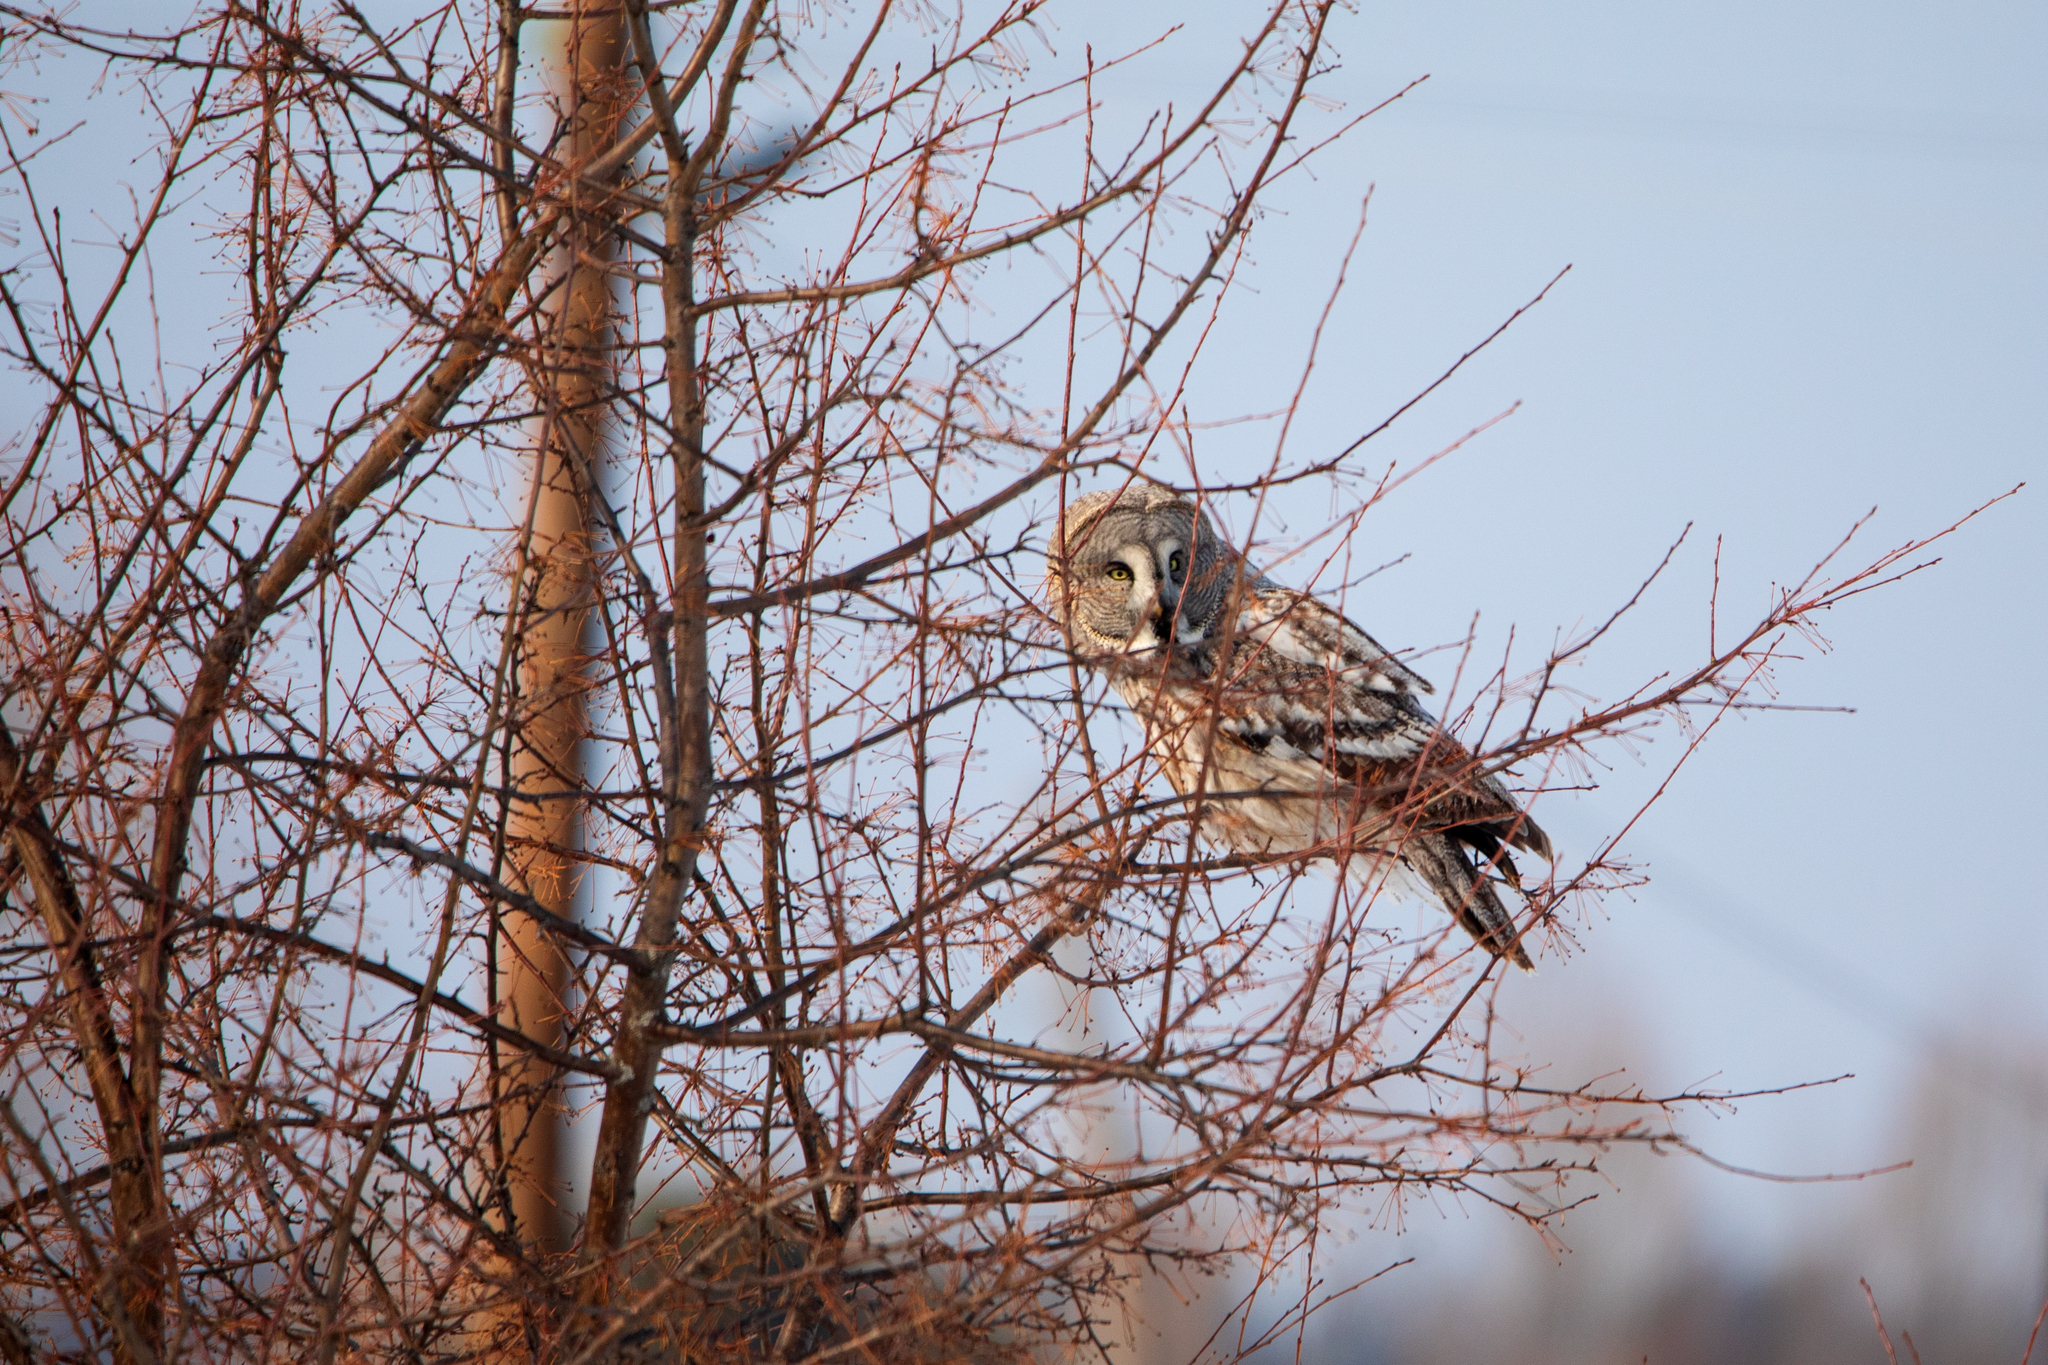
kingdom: Animalia
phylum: Chordata
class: Aves
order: Strigiformes
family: Strigidae
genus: Strix
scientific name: Strix nebulosa
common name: Great grey owl
